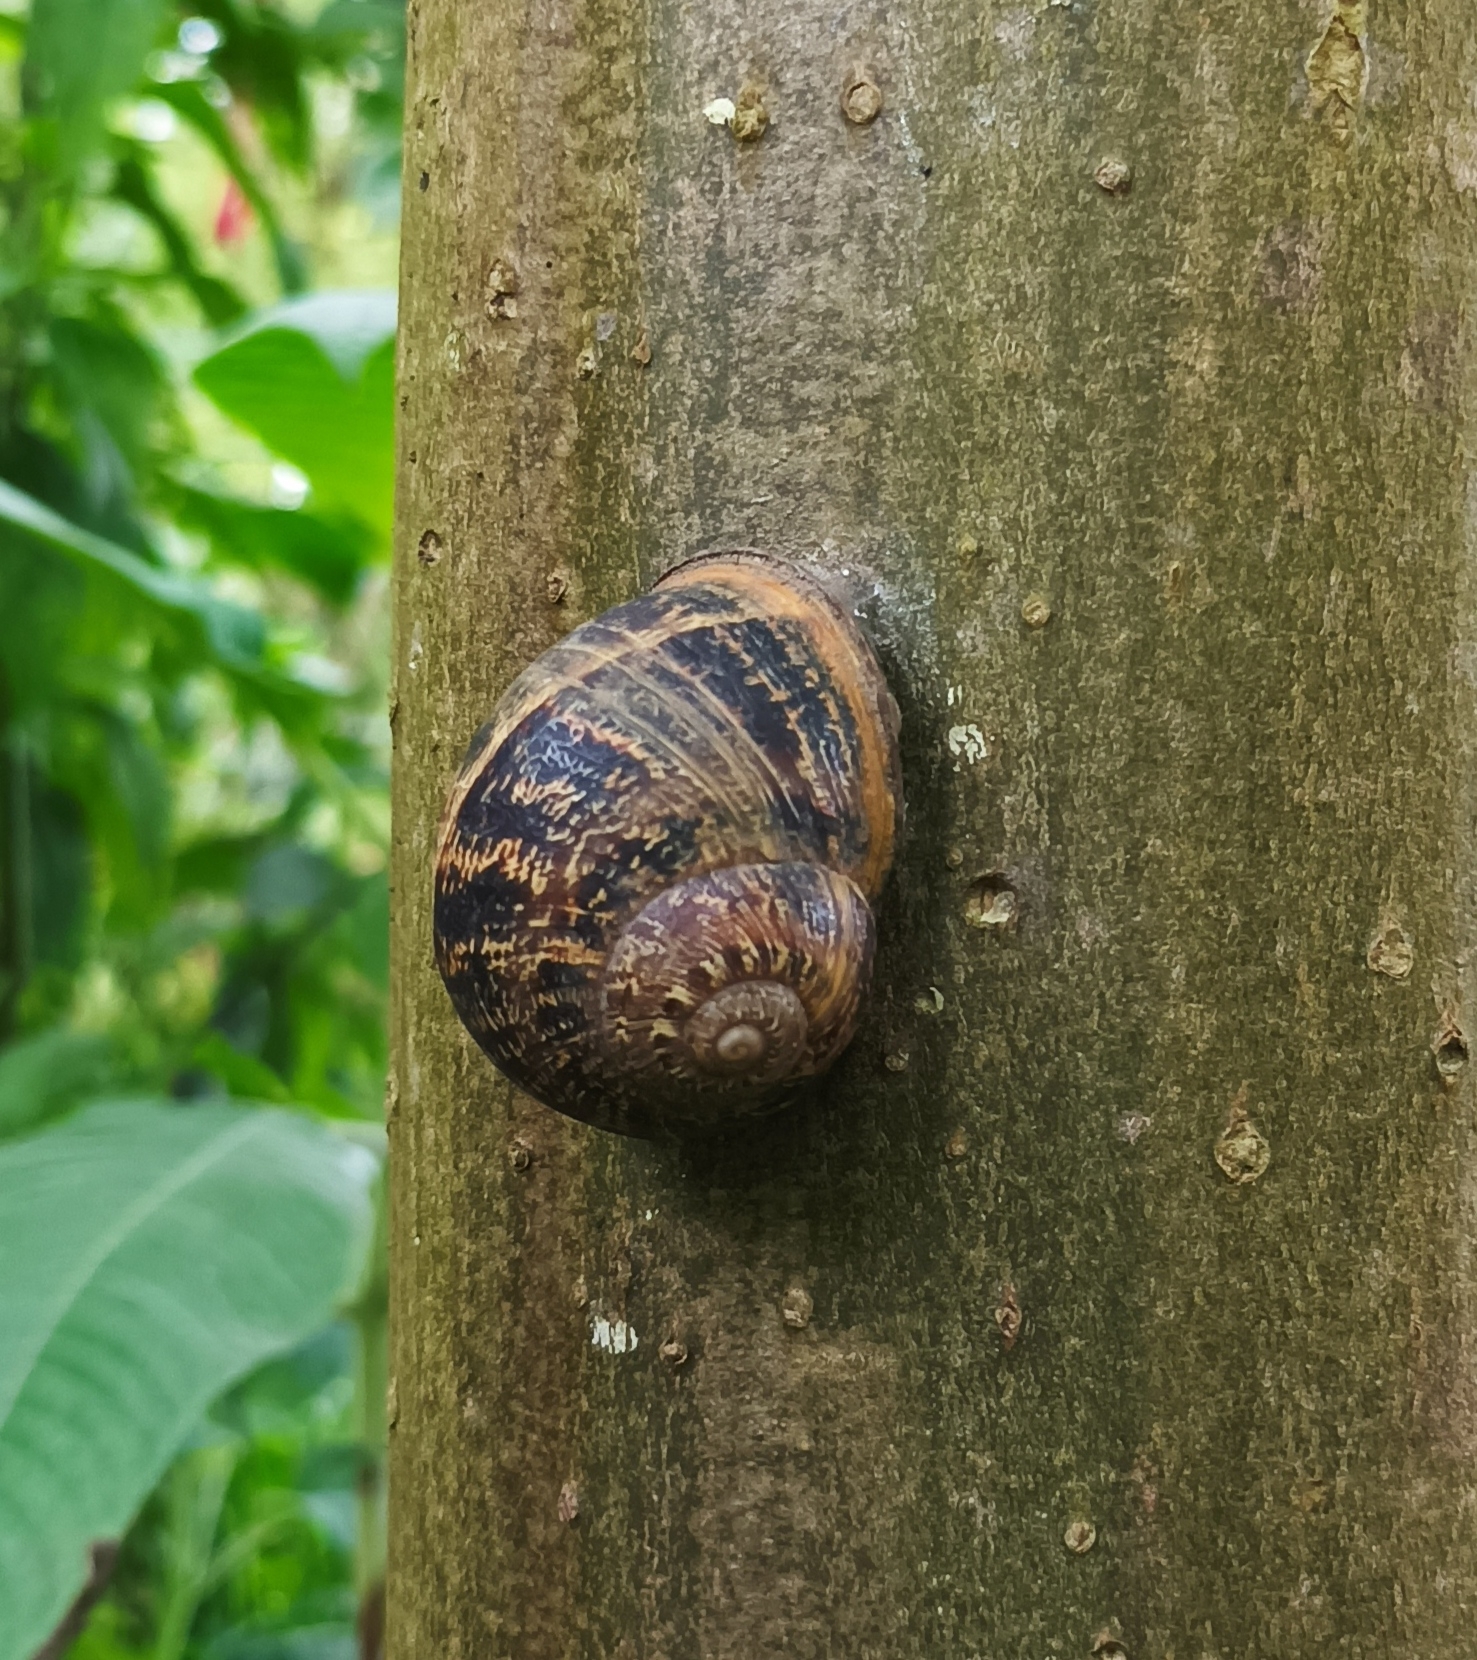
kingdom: Animalia
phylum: Mollusca
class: Gastropoda
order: Stylommatophora
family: Helicidae
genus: Cornu
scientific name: Cornu aspersum
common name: Brown garden snail
